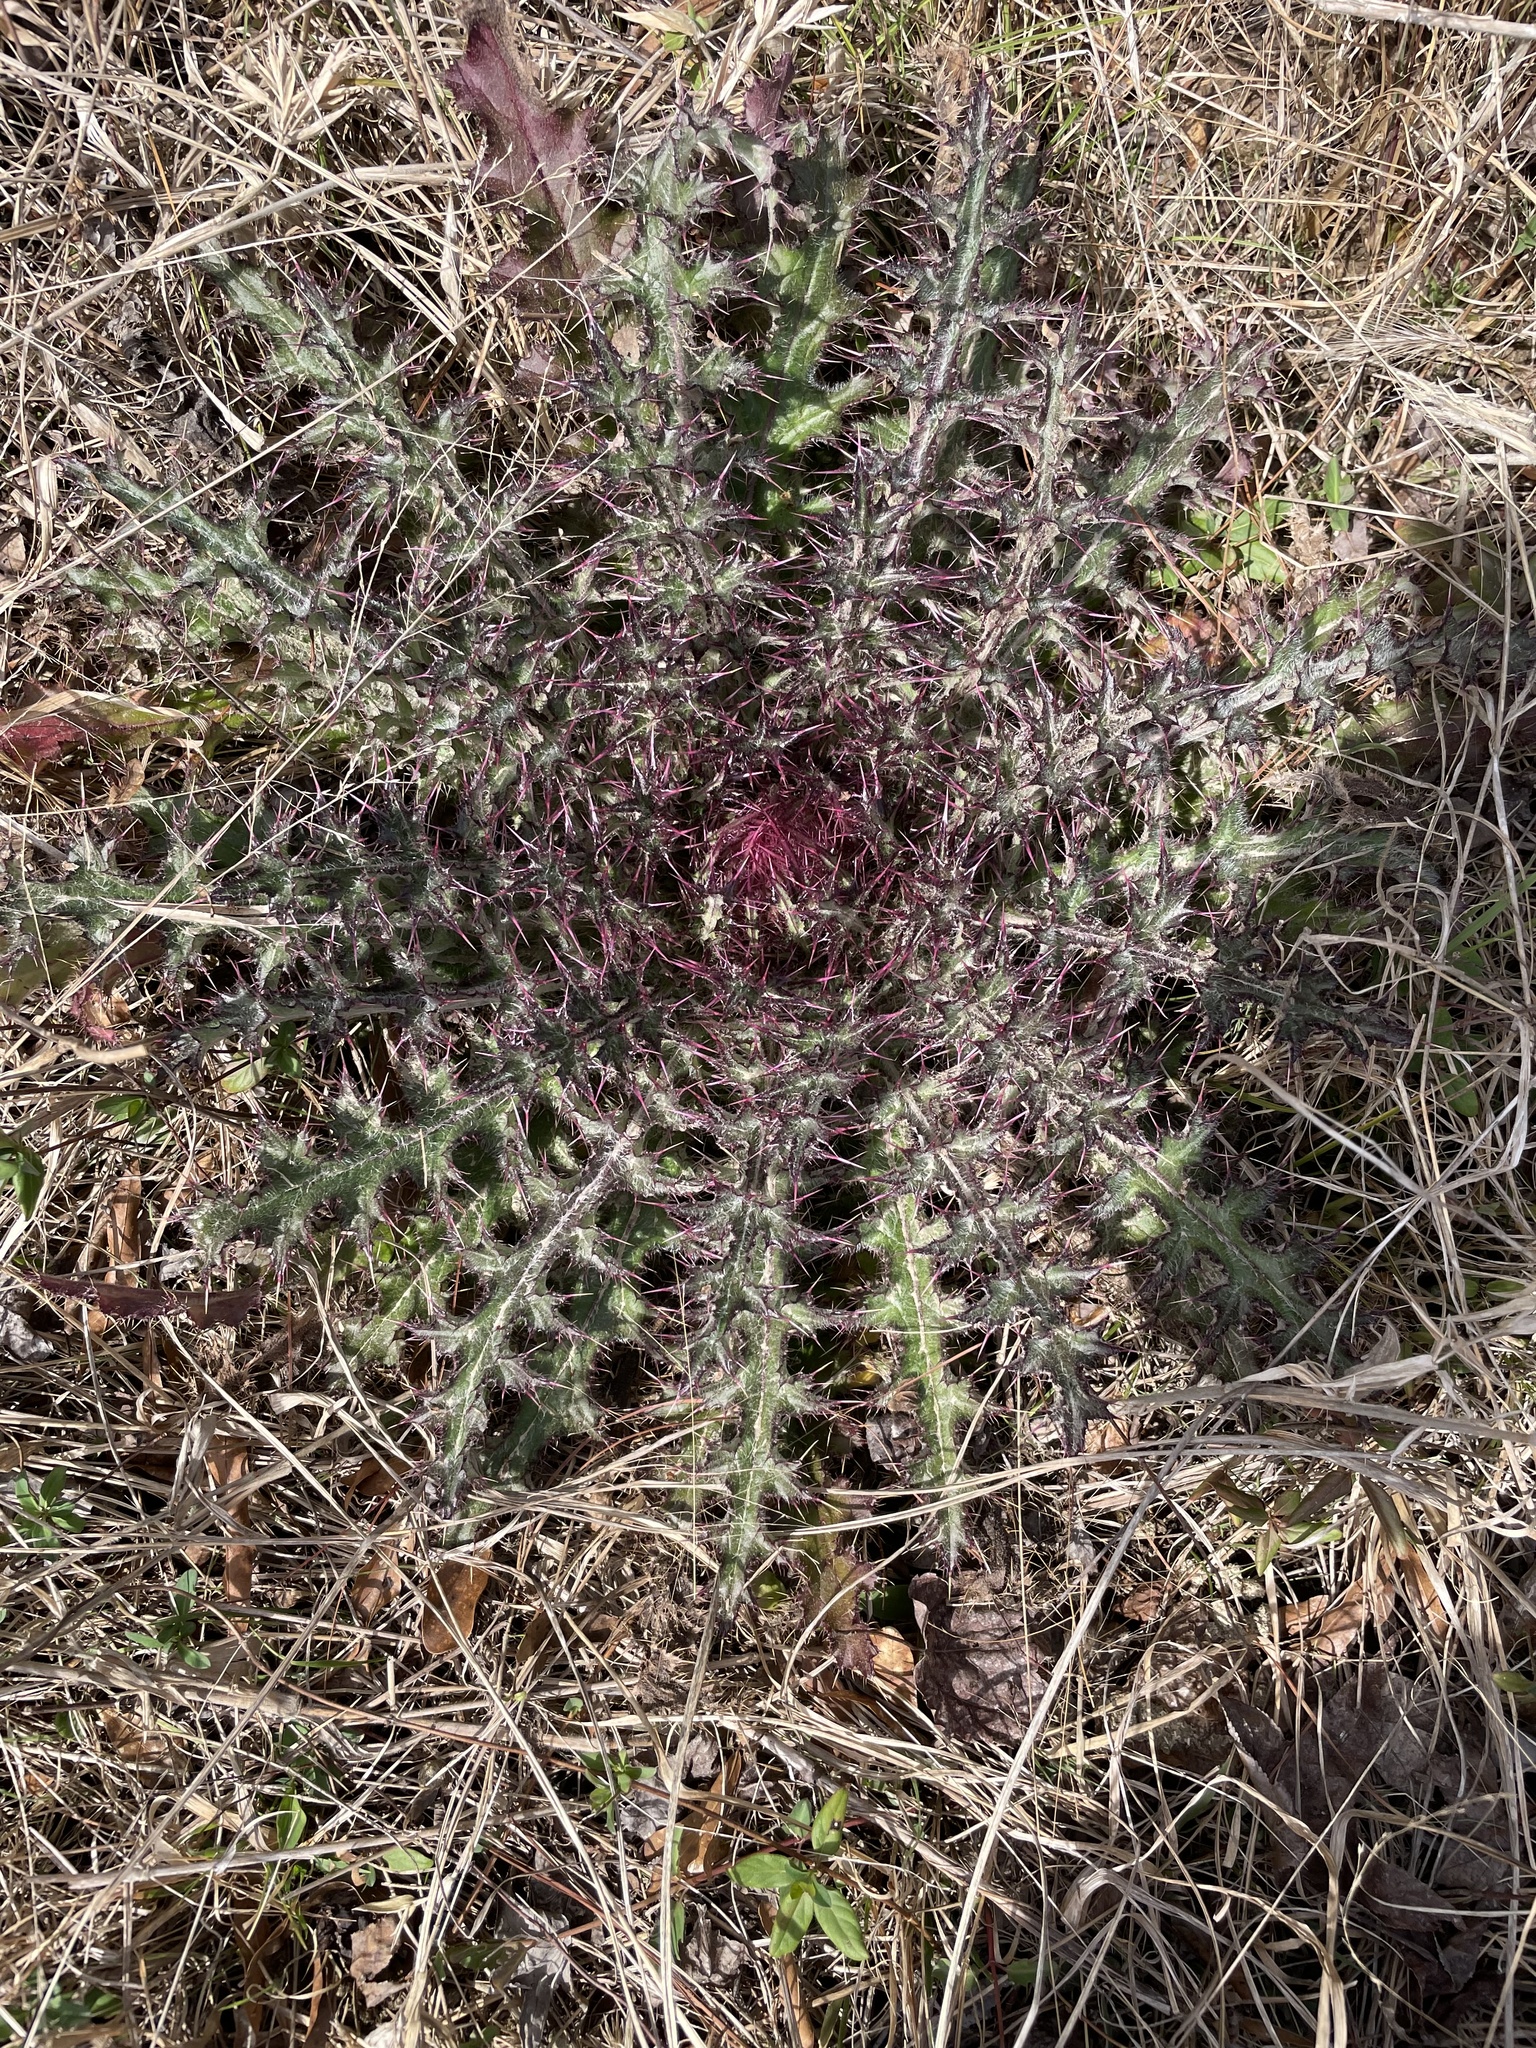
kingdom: Plantae
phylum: Tracheophyta
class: Magnoliopsida
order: Asterales
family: Asteraceae
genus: Cirsium
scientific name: Cirsium horridulum
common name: Bristly thistle
